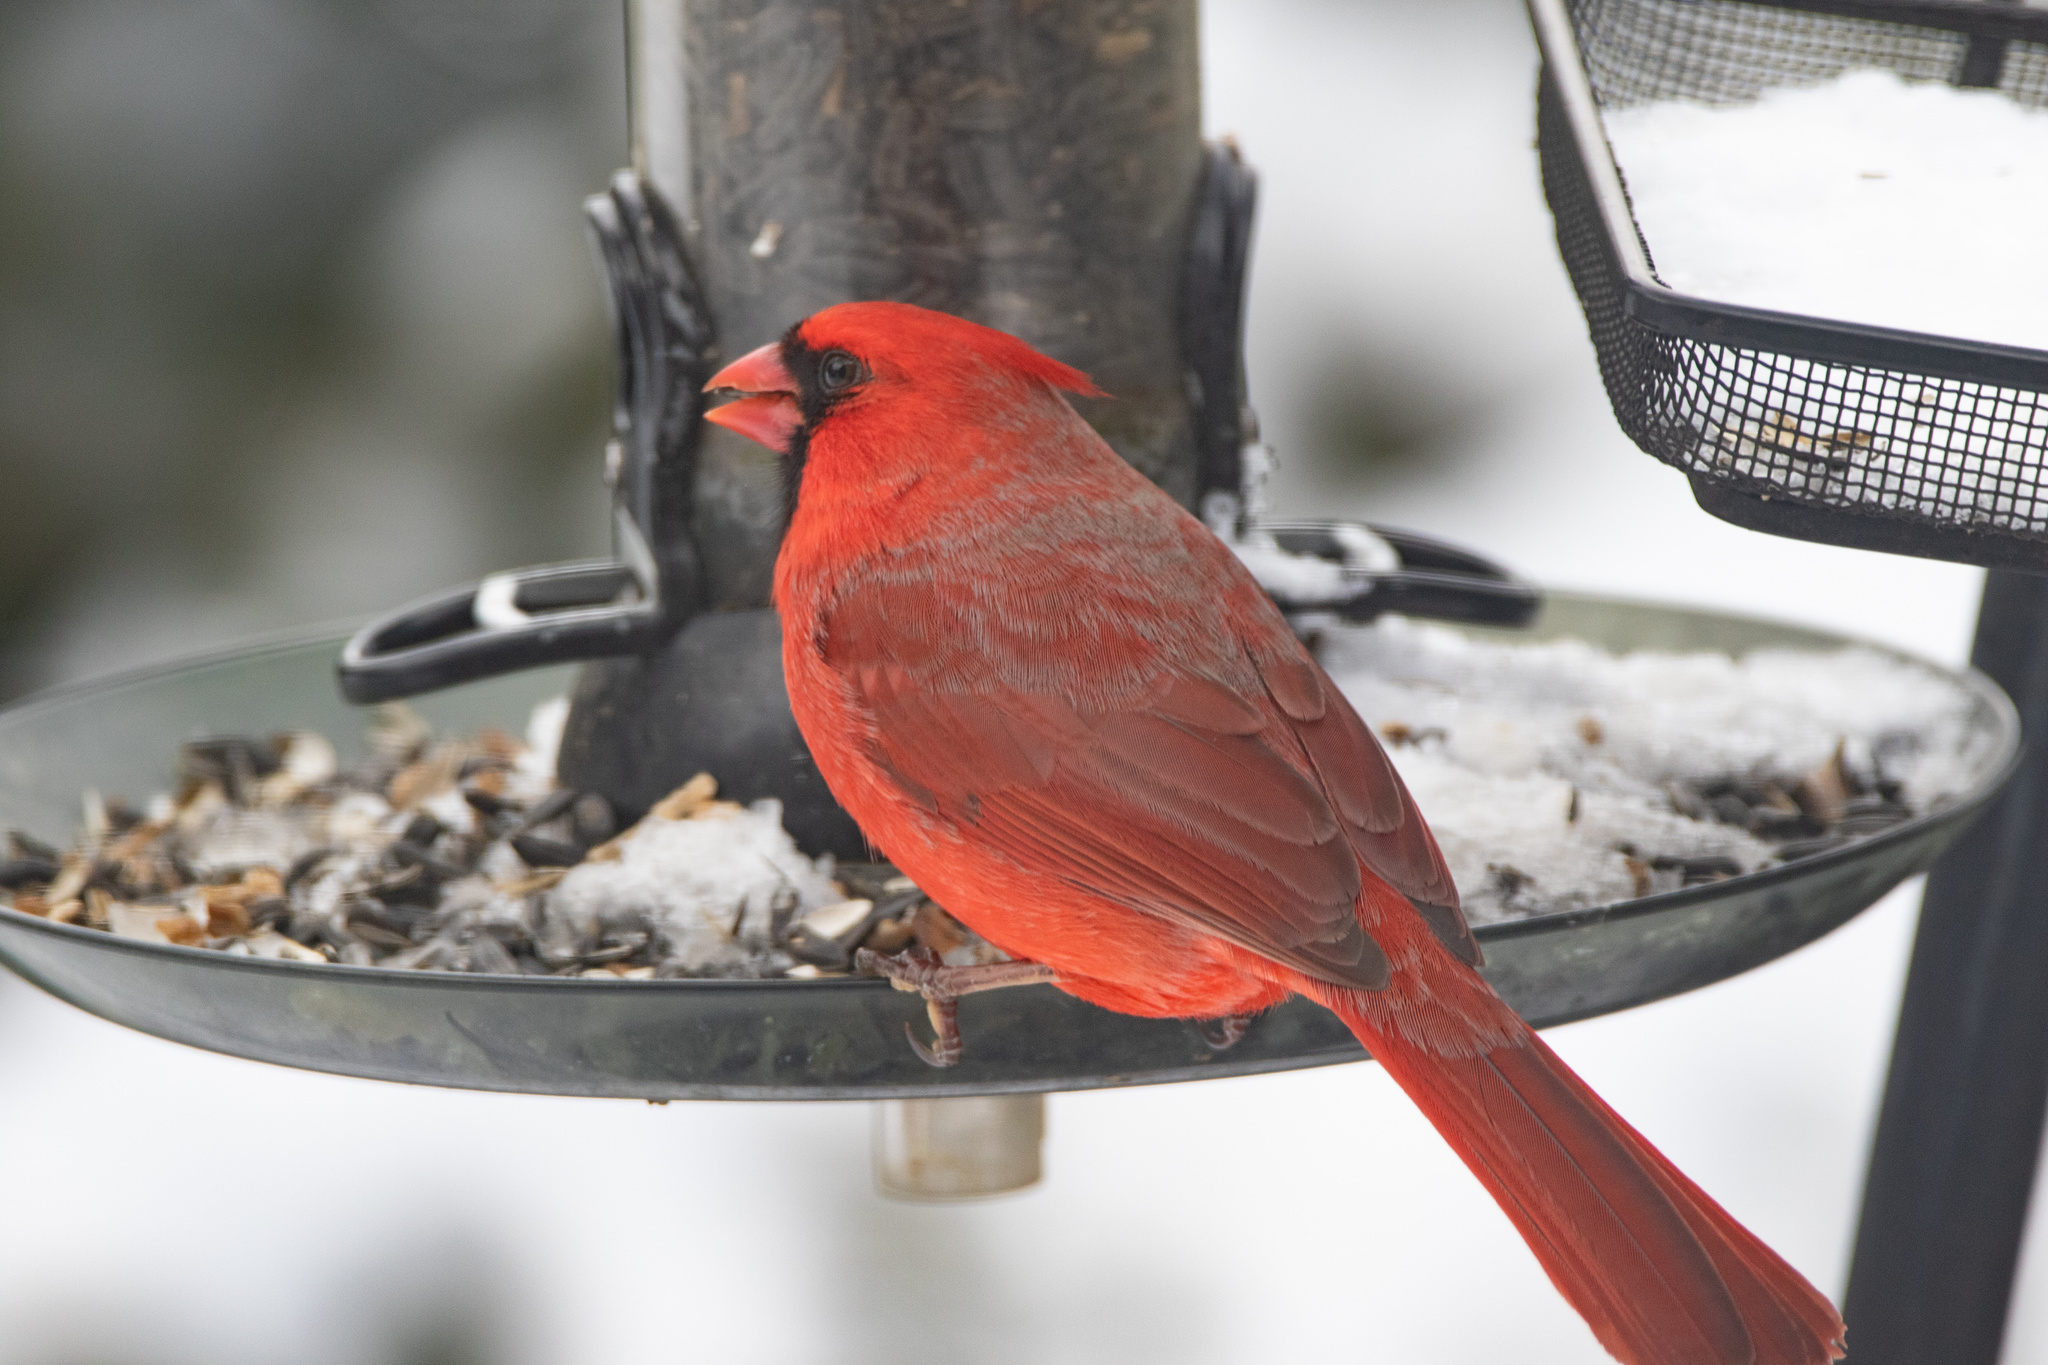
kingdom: Animalia
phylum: Chordata
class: Aves
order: Passeriformes
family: Cardinalidae
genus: Cardinalis
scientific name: Cardinalis cardinalis
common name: Northern cardinal
